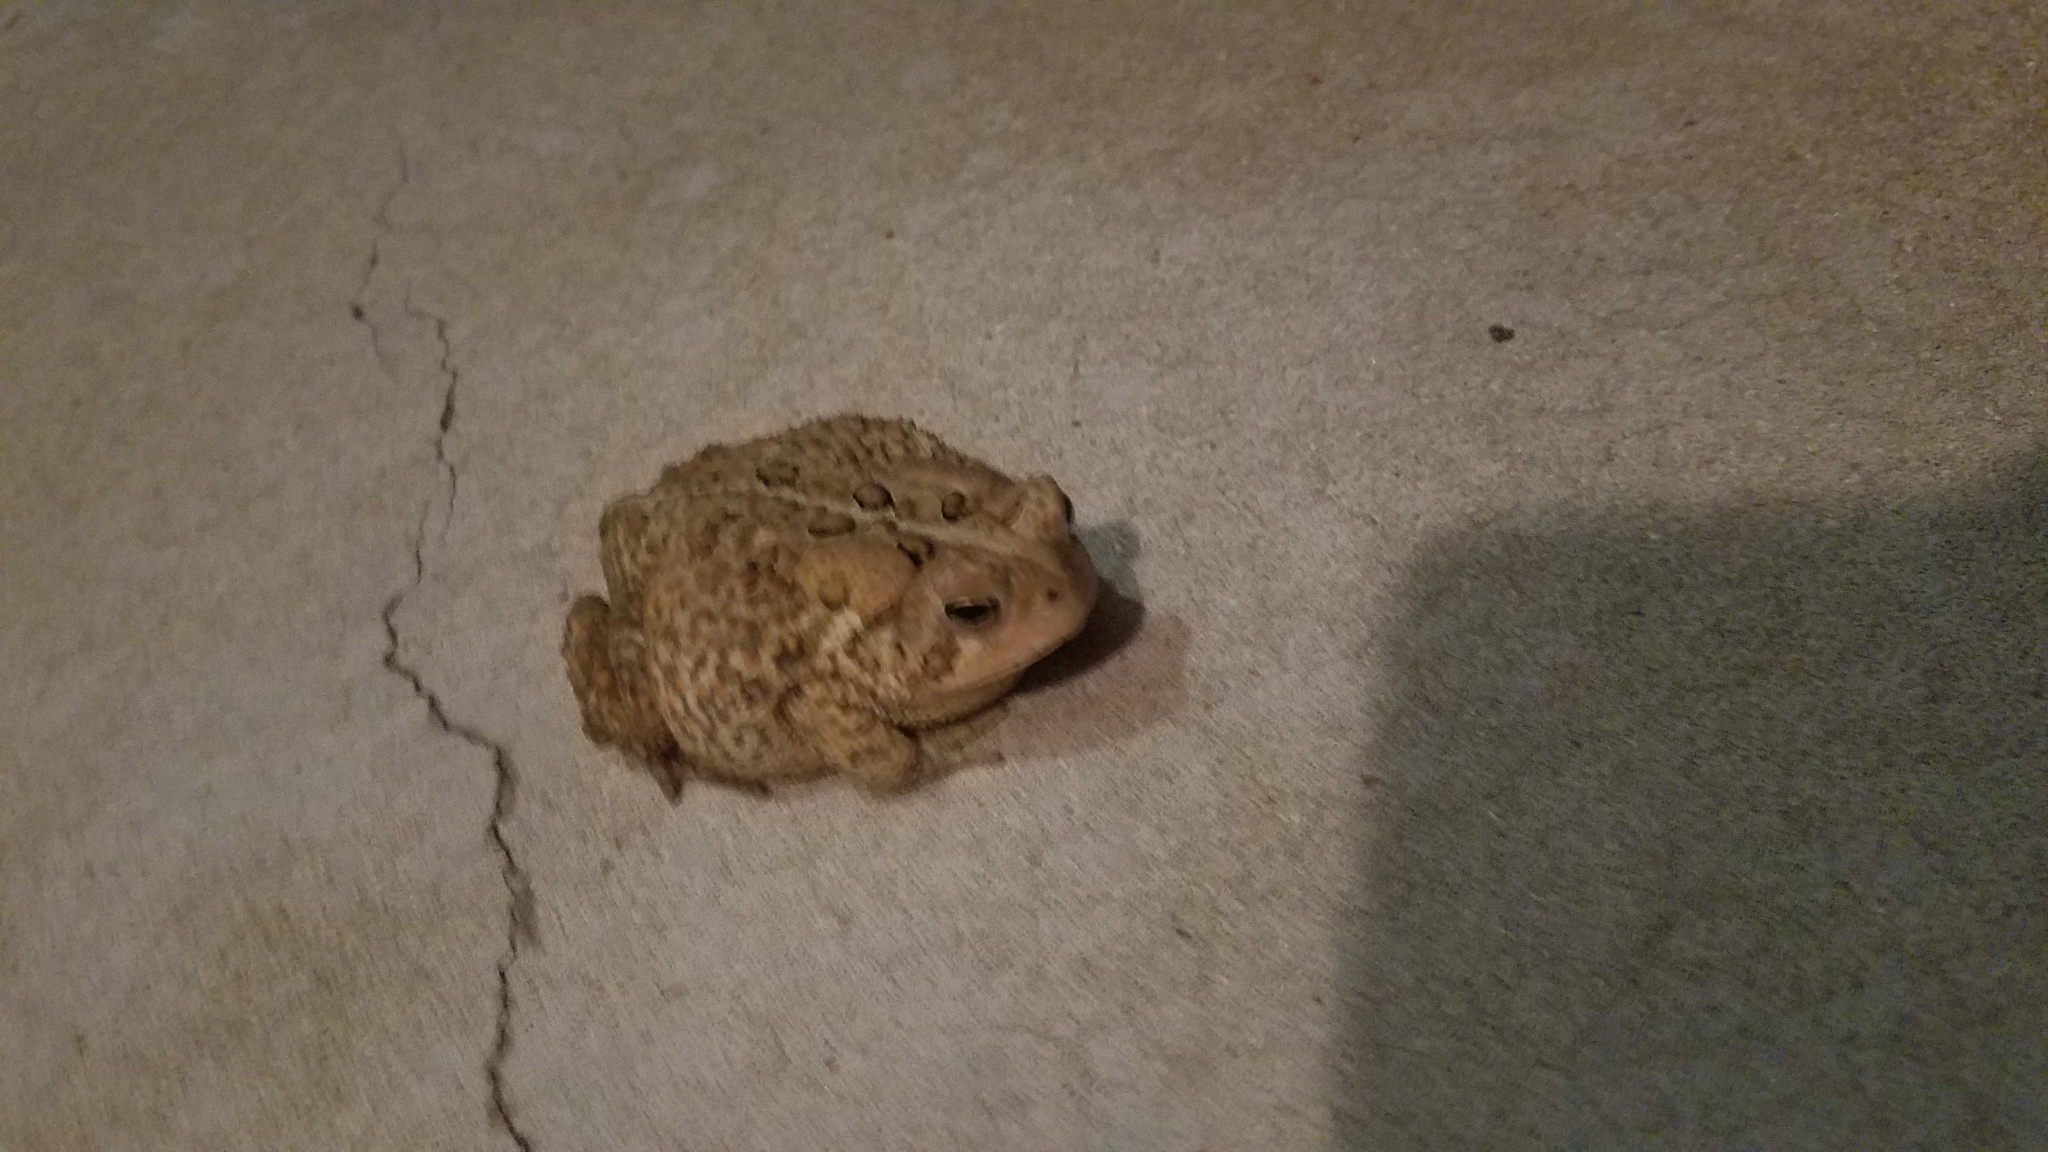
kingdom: Animalia
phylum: Chordata
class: Amphibia
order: Anura
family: Bufonidae
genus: Anaxyrus
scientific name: Anaxyrus americanus
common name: American toad
